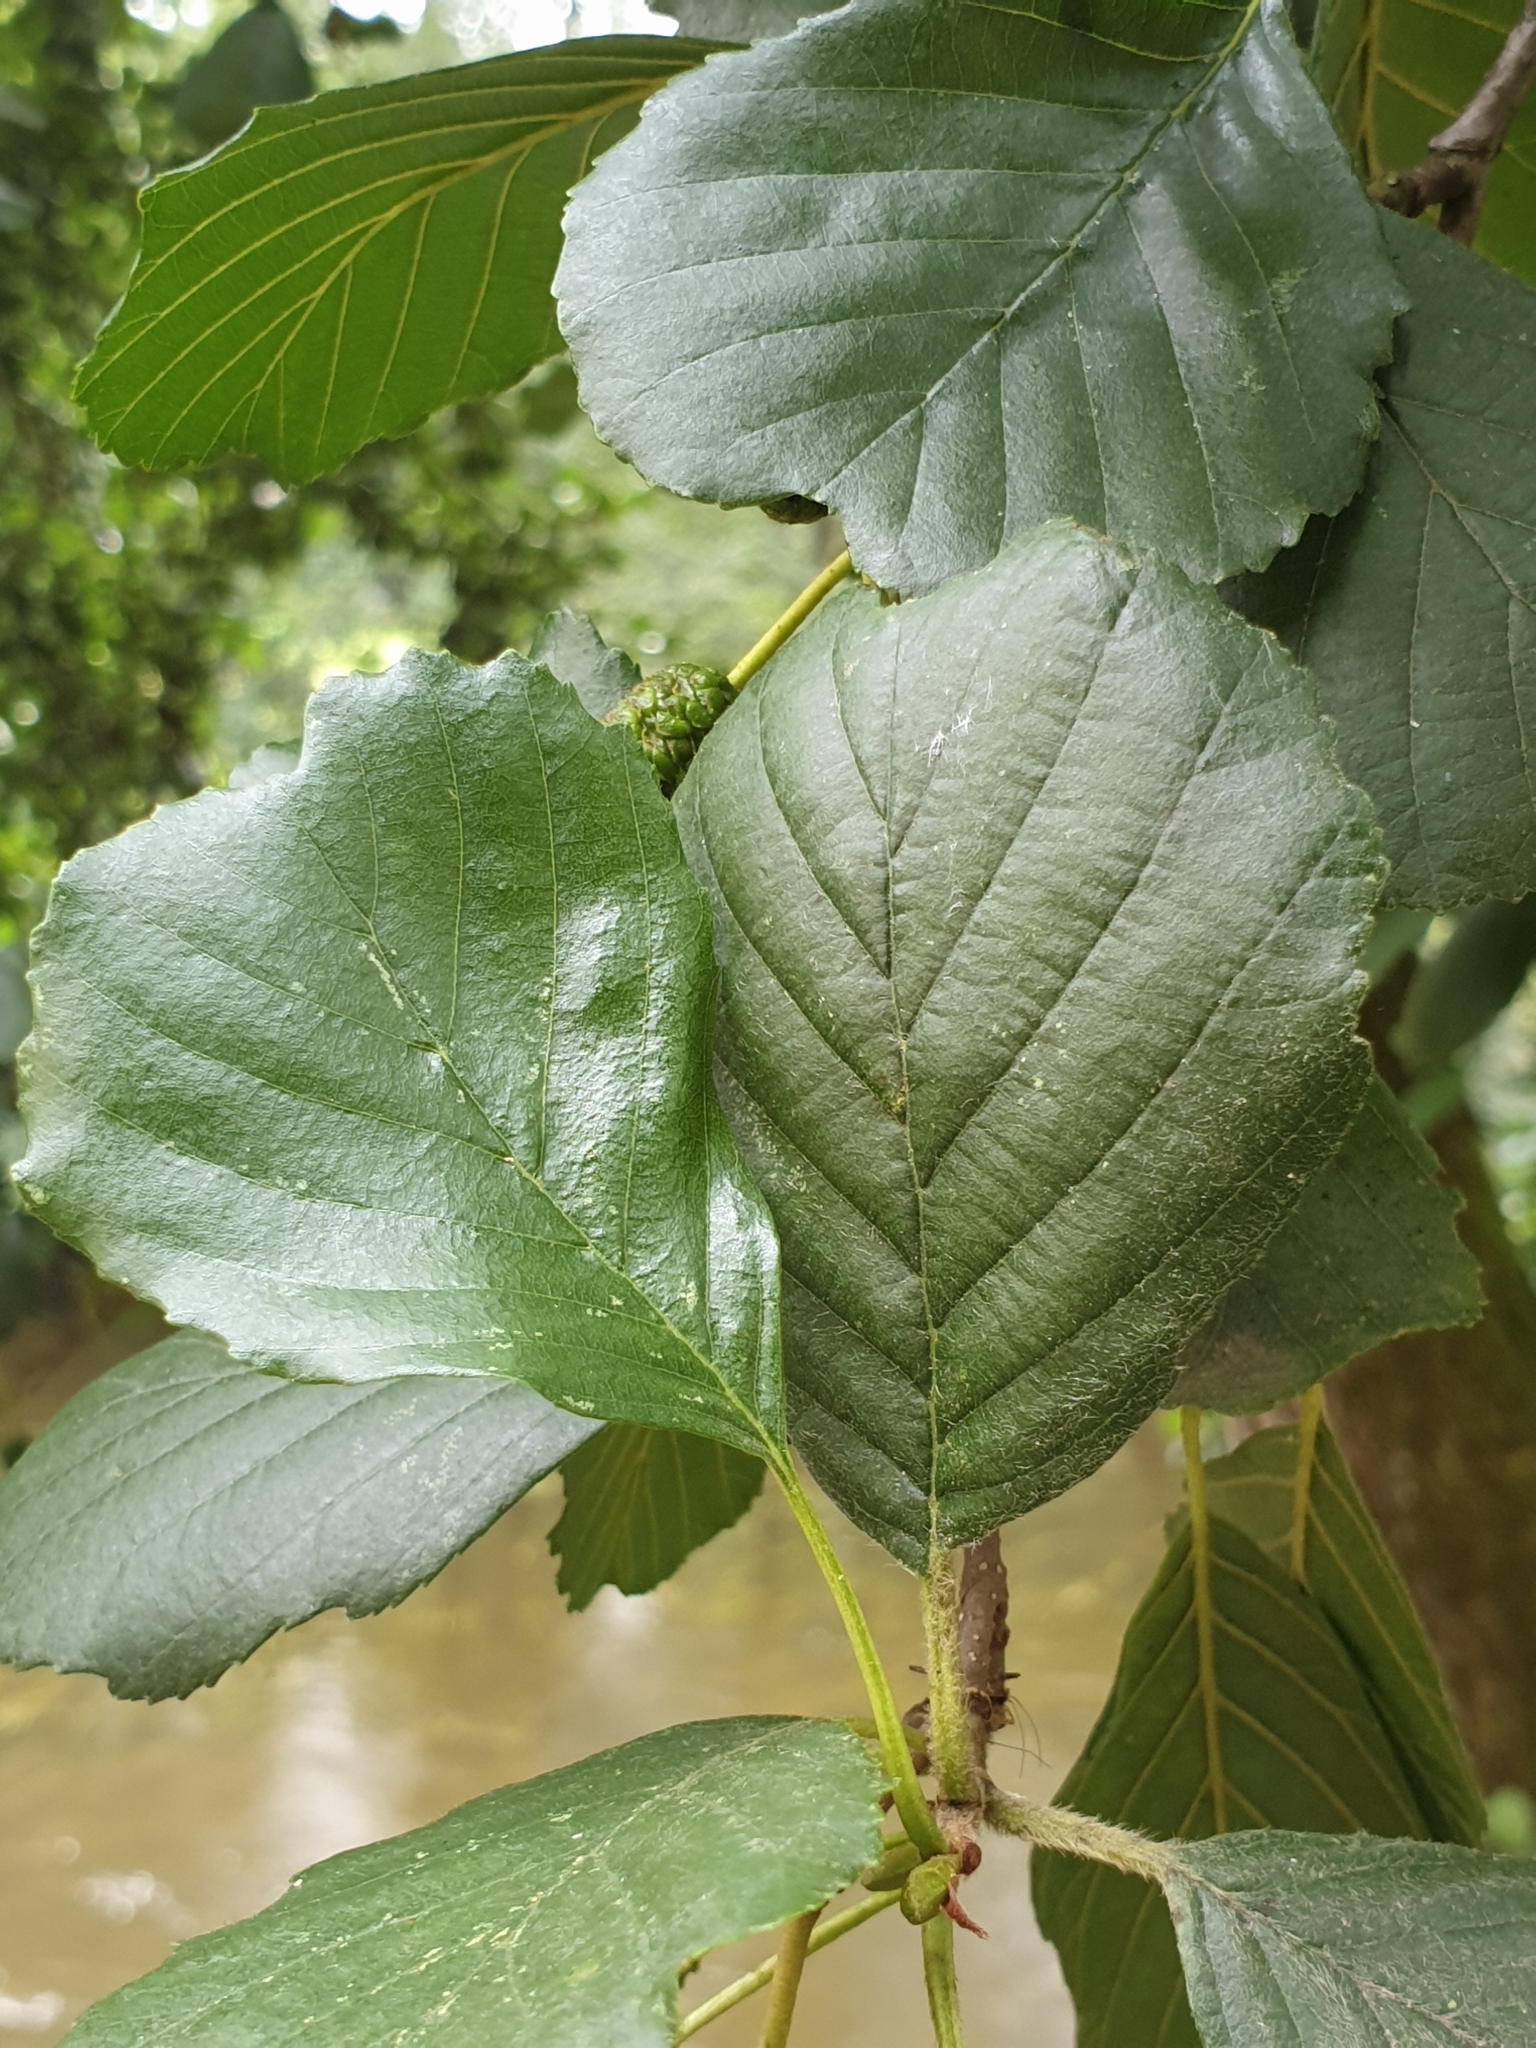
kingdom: Plantae
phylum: Tracheophyta
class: Magnoliopsida
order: Fagales
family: Betulaceae
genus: Alnus
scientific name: Alnus glutinosa
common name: Black alder
